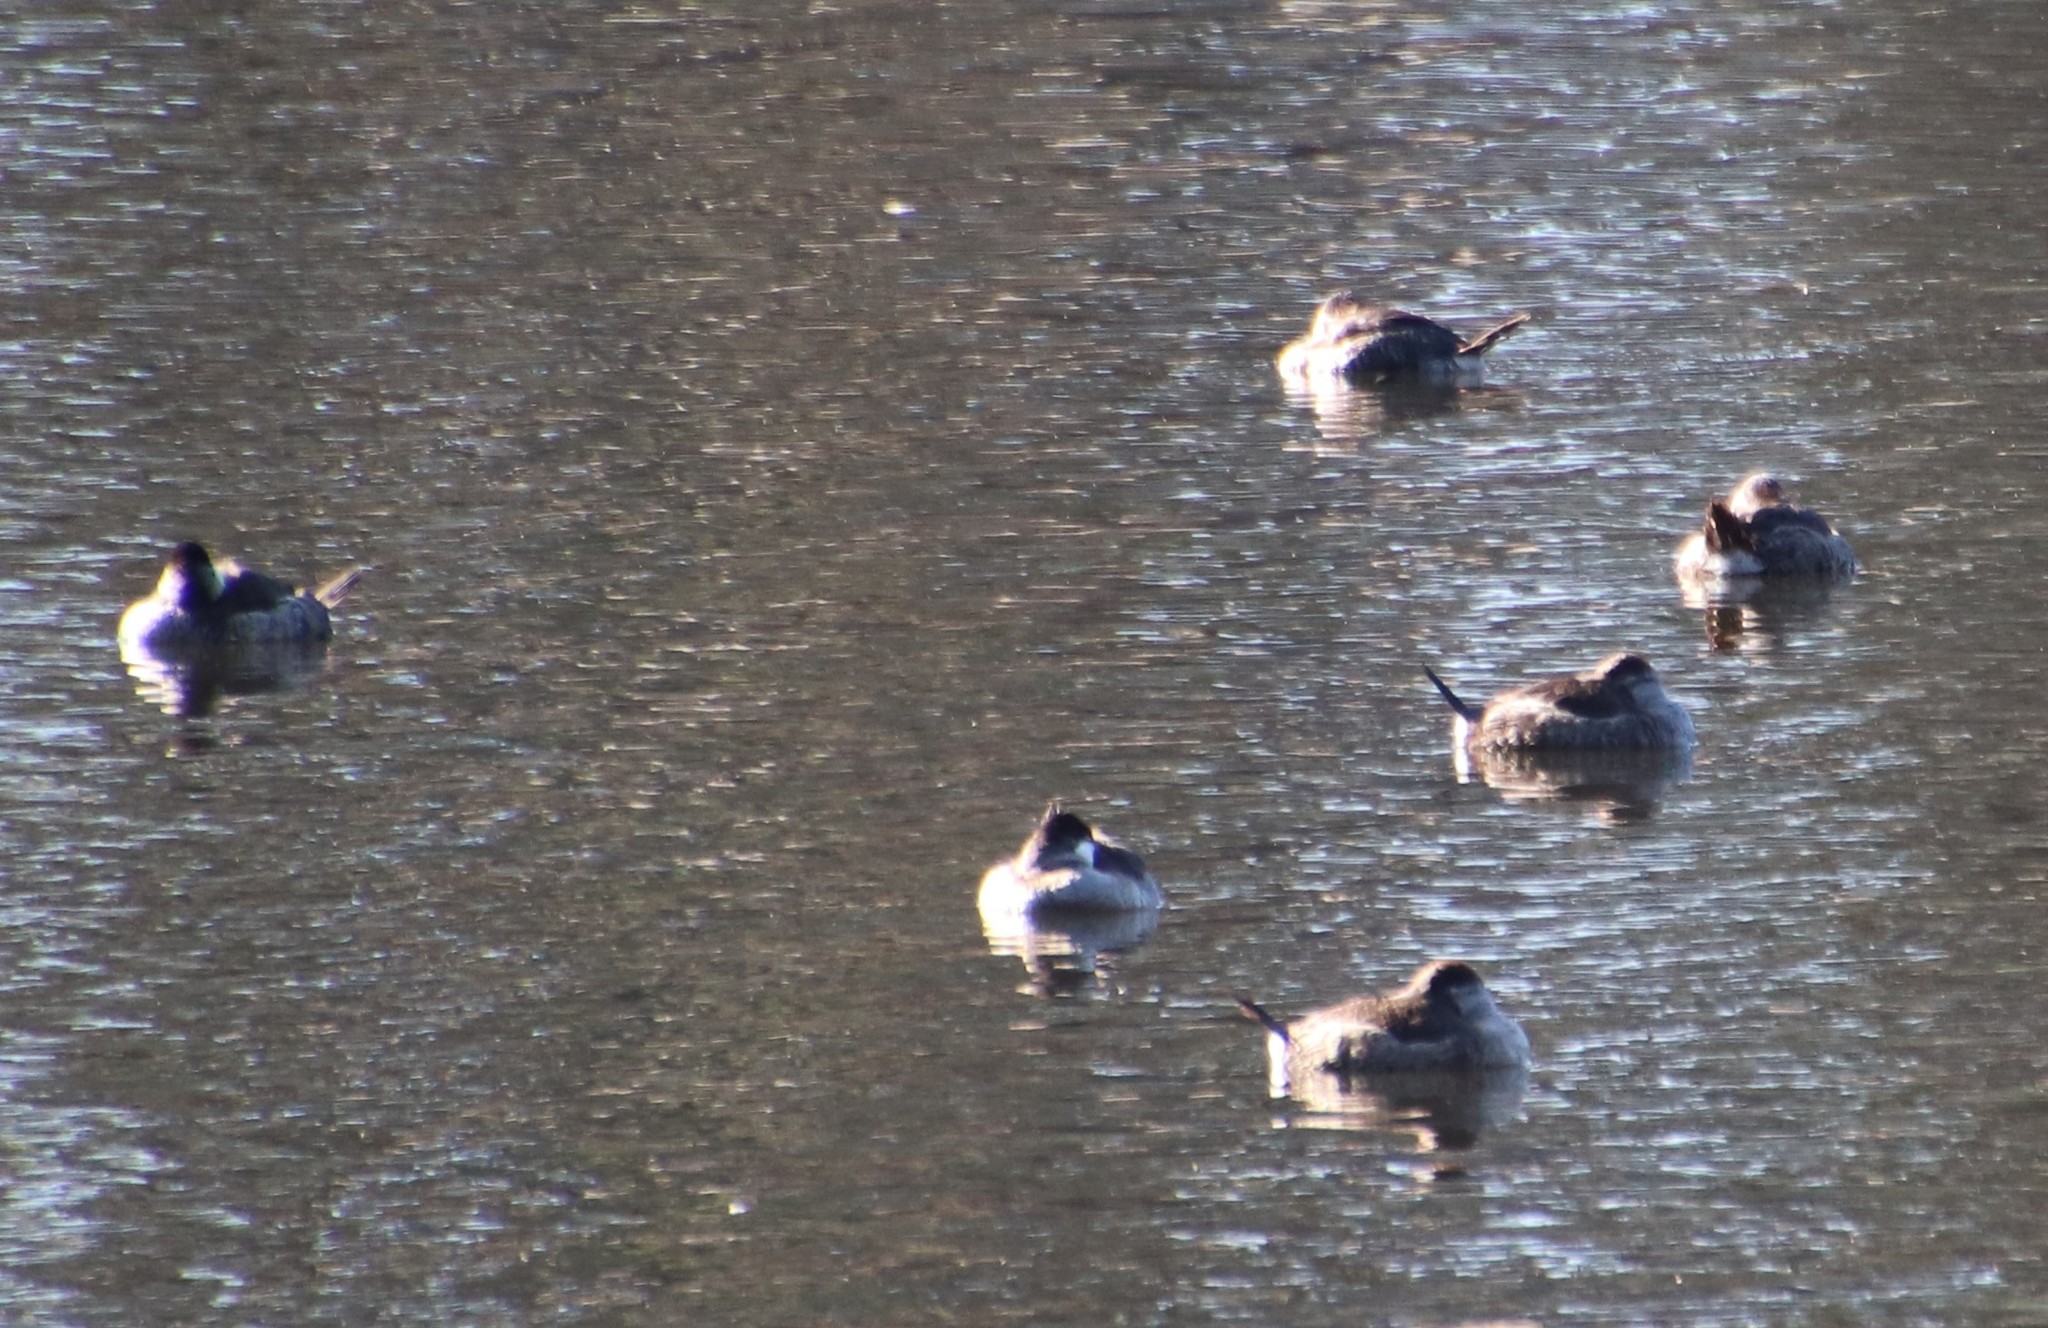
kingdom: Animalia
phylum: Chordata
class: Aves
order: Anseriformes
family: Anatidae
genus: Oxyura
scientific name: Oxyura jamaicensis
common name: Ruddy duck
